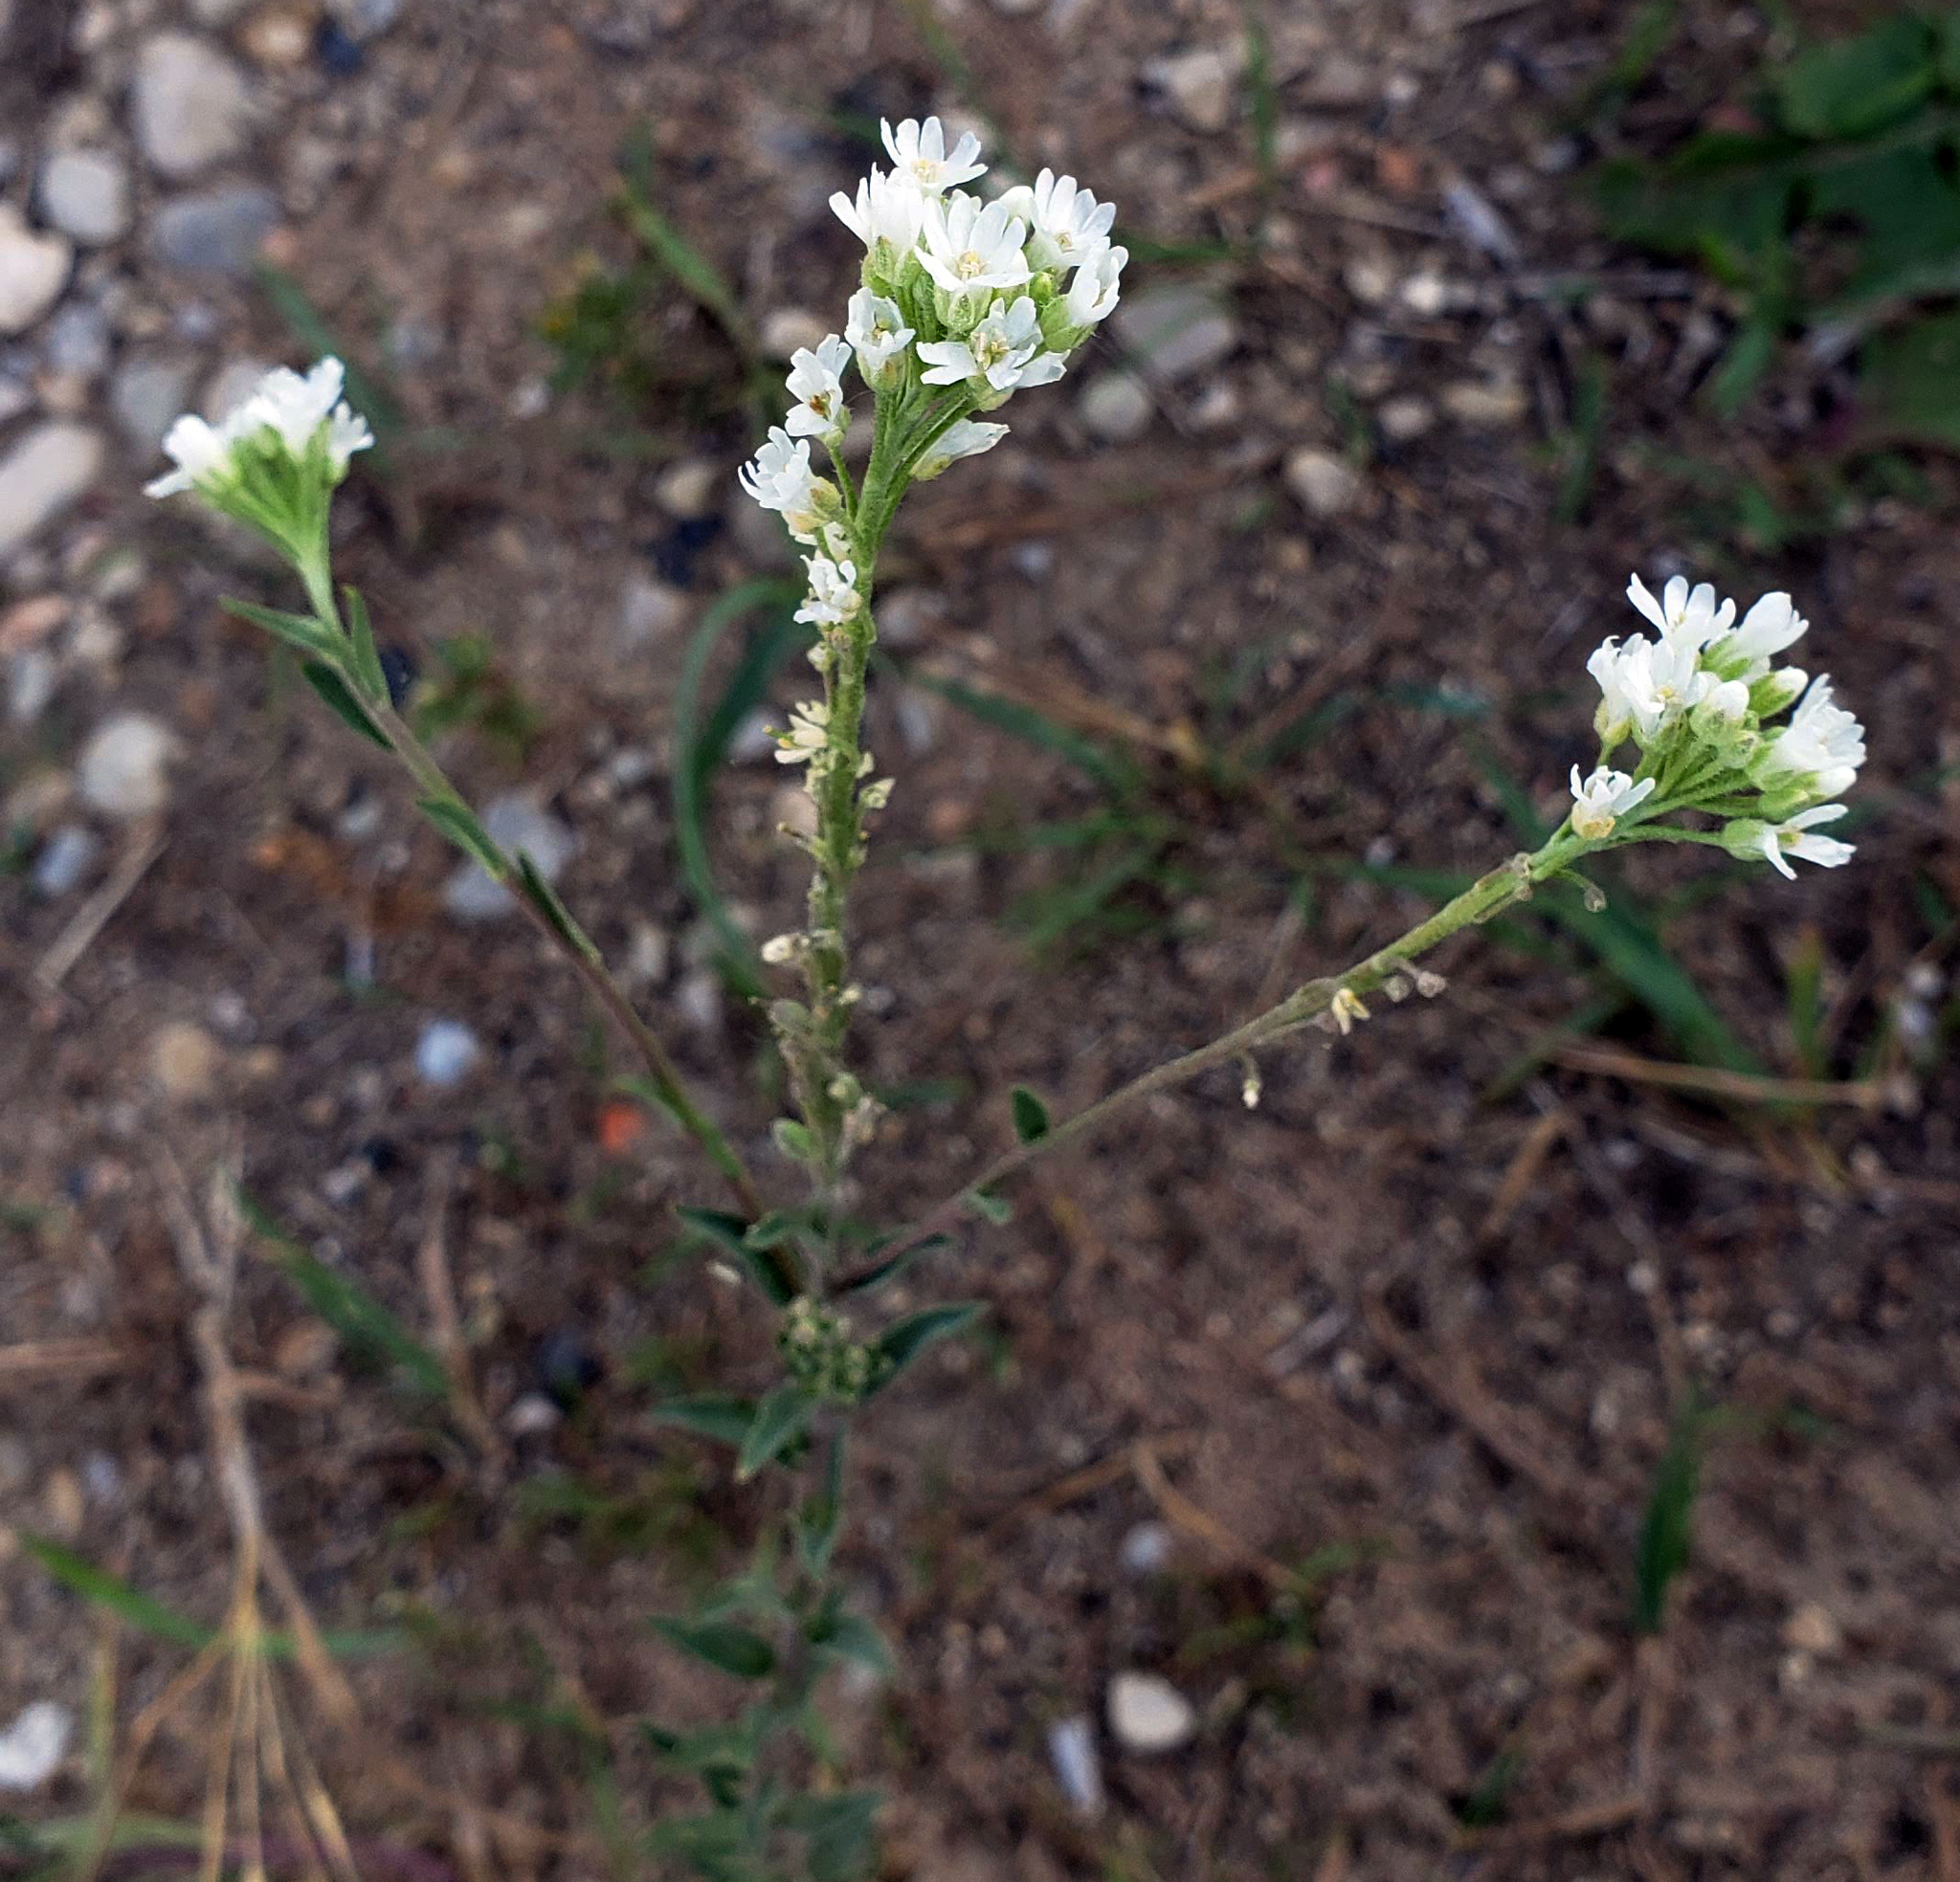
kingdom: Plantae
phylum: Tracheophyta
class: Magnoliopsida
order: Brassicales
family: Brassicaceae
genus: Berteroa
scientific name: Berteroa incana
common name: Hoary alison
